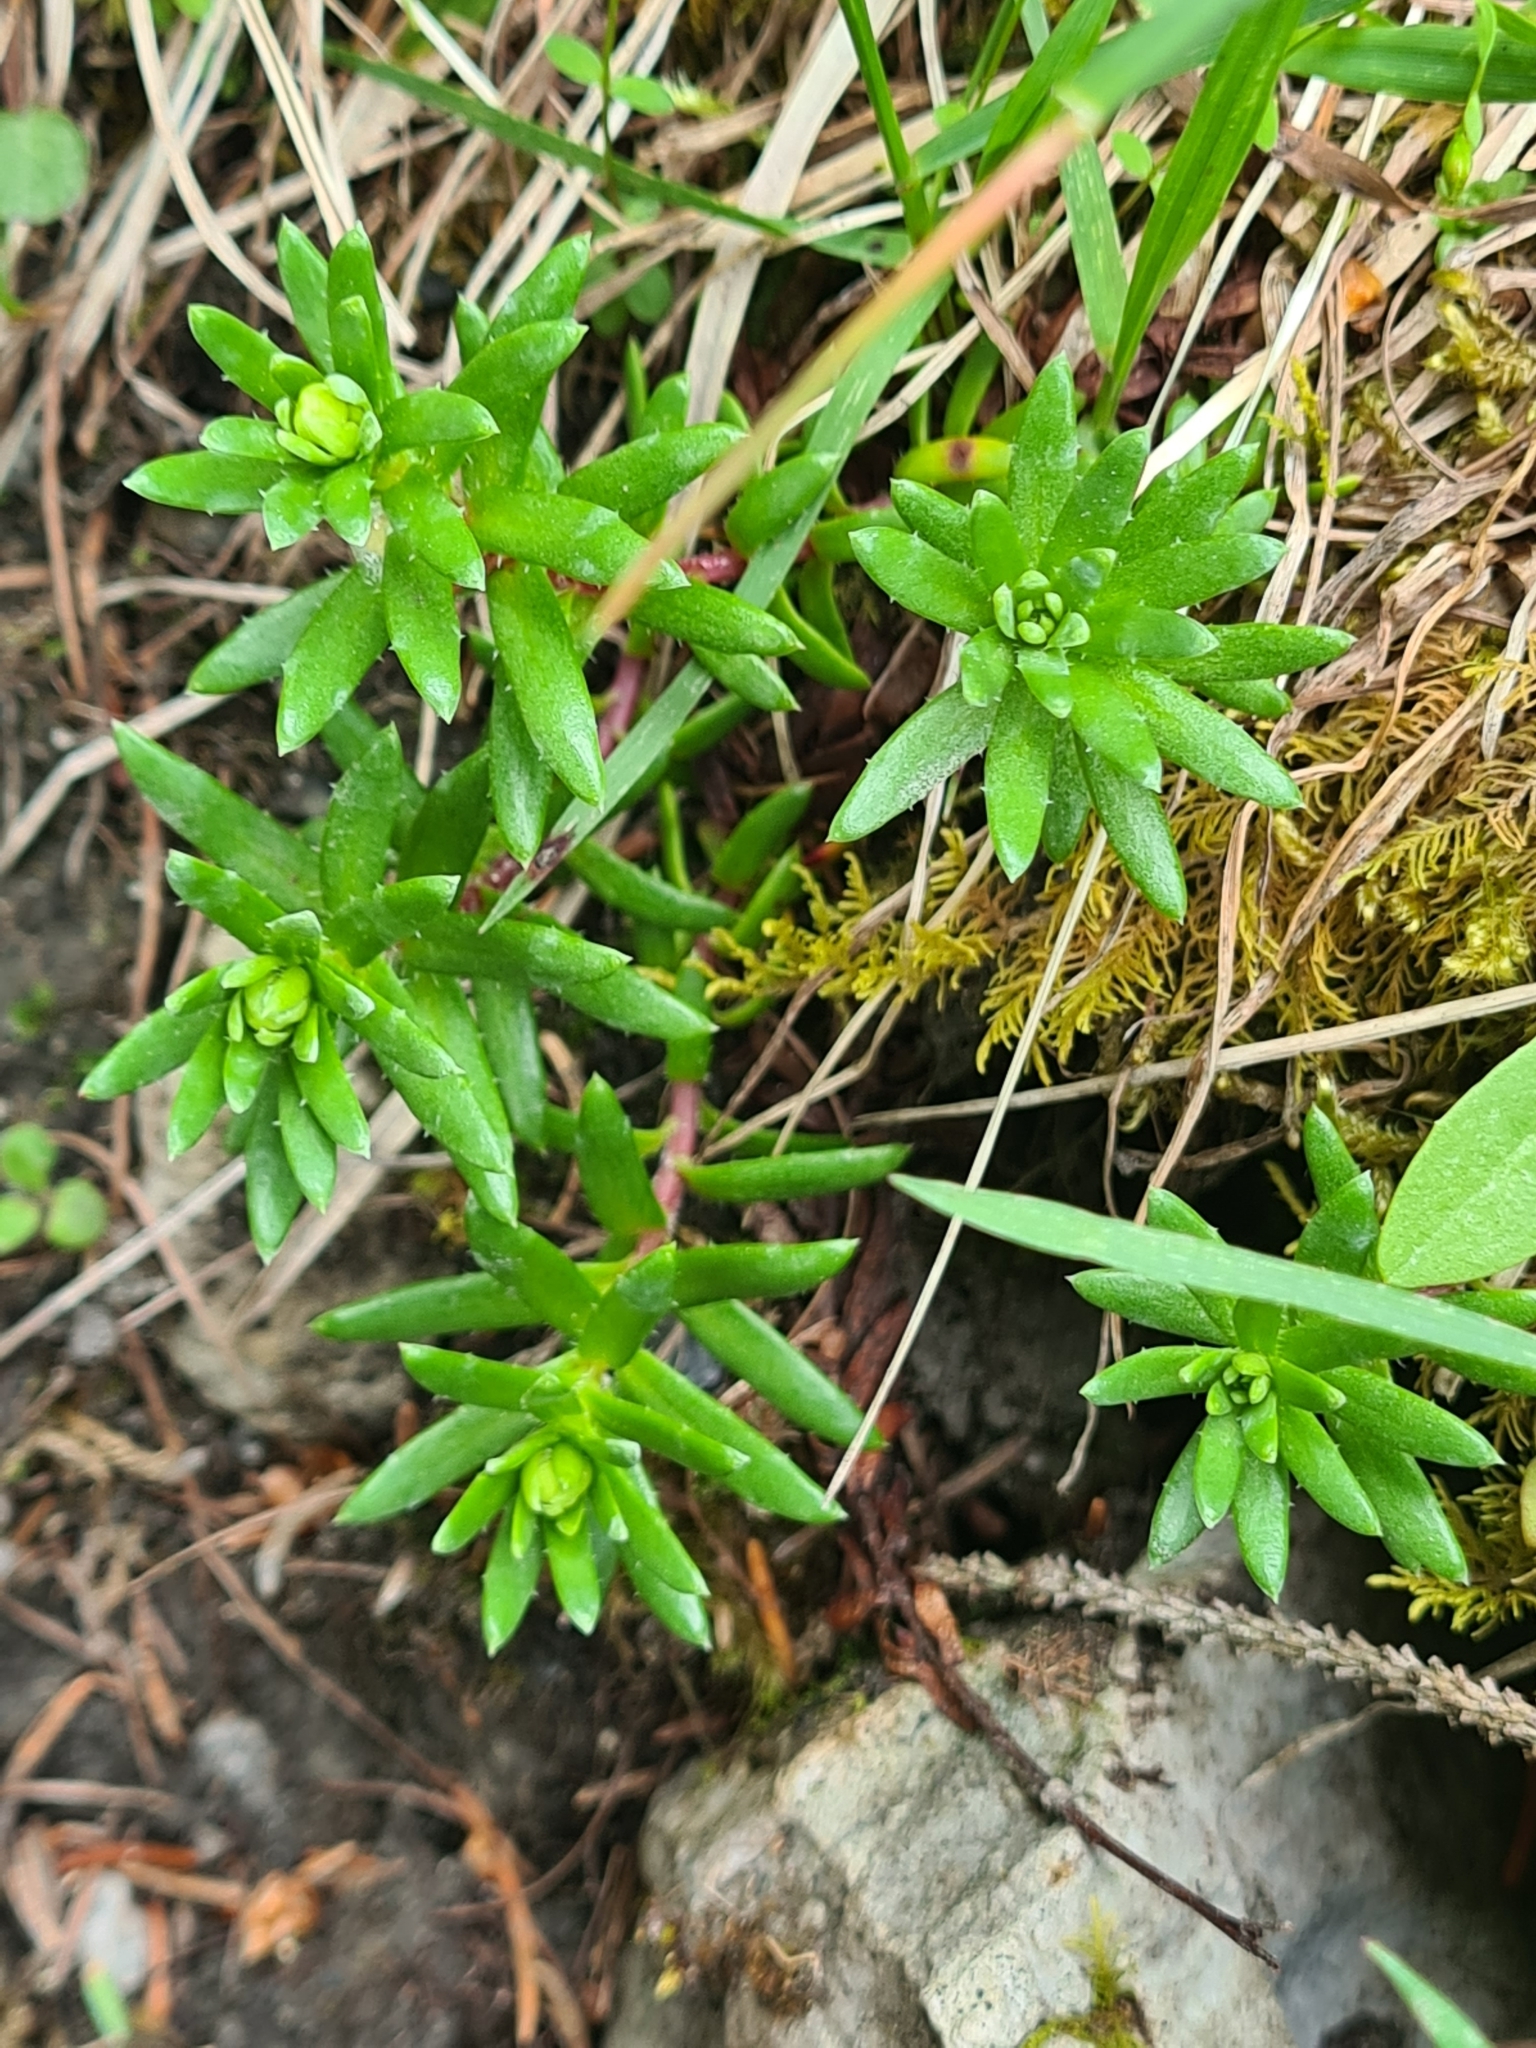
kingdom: Plantae
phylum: Tracheophyta
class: Magnoliopsida
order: Saxifragales
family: Saxifragaceae
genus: Saxifraga
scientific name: Saxifraga aizoides
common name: Yellow mountain saxifrage
